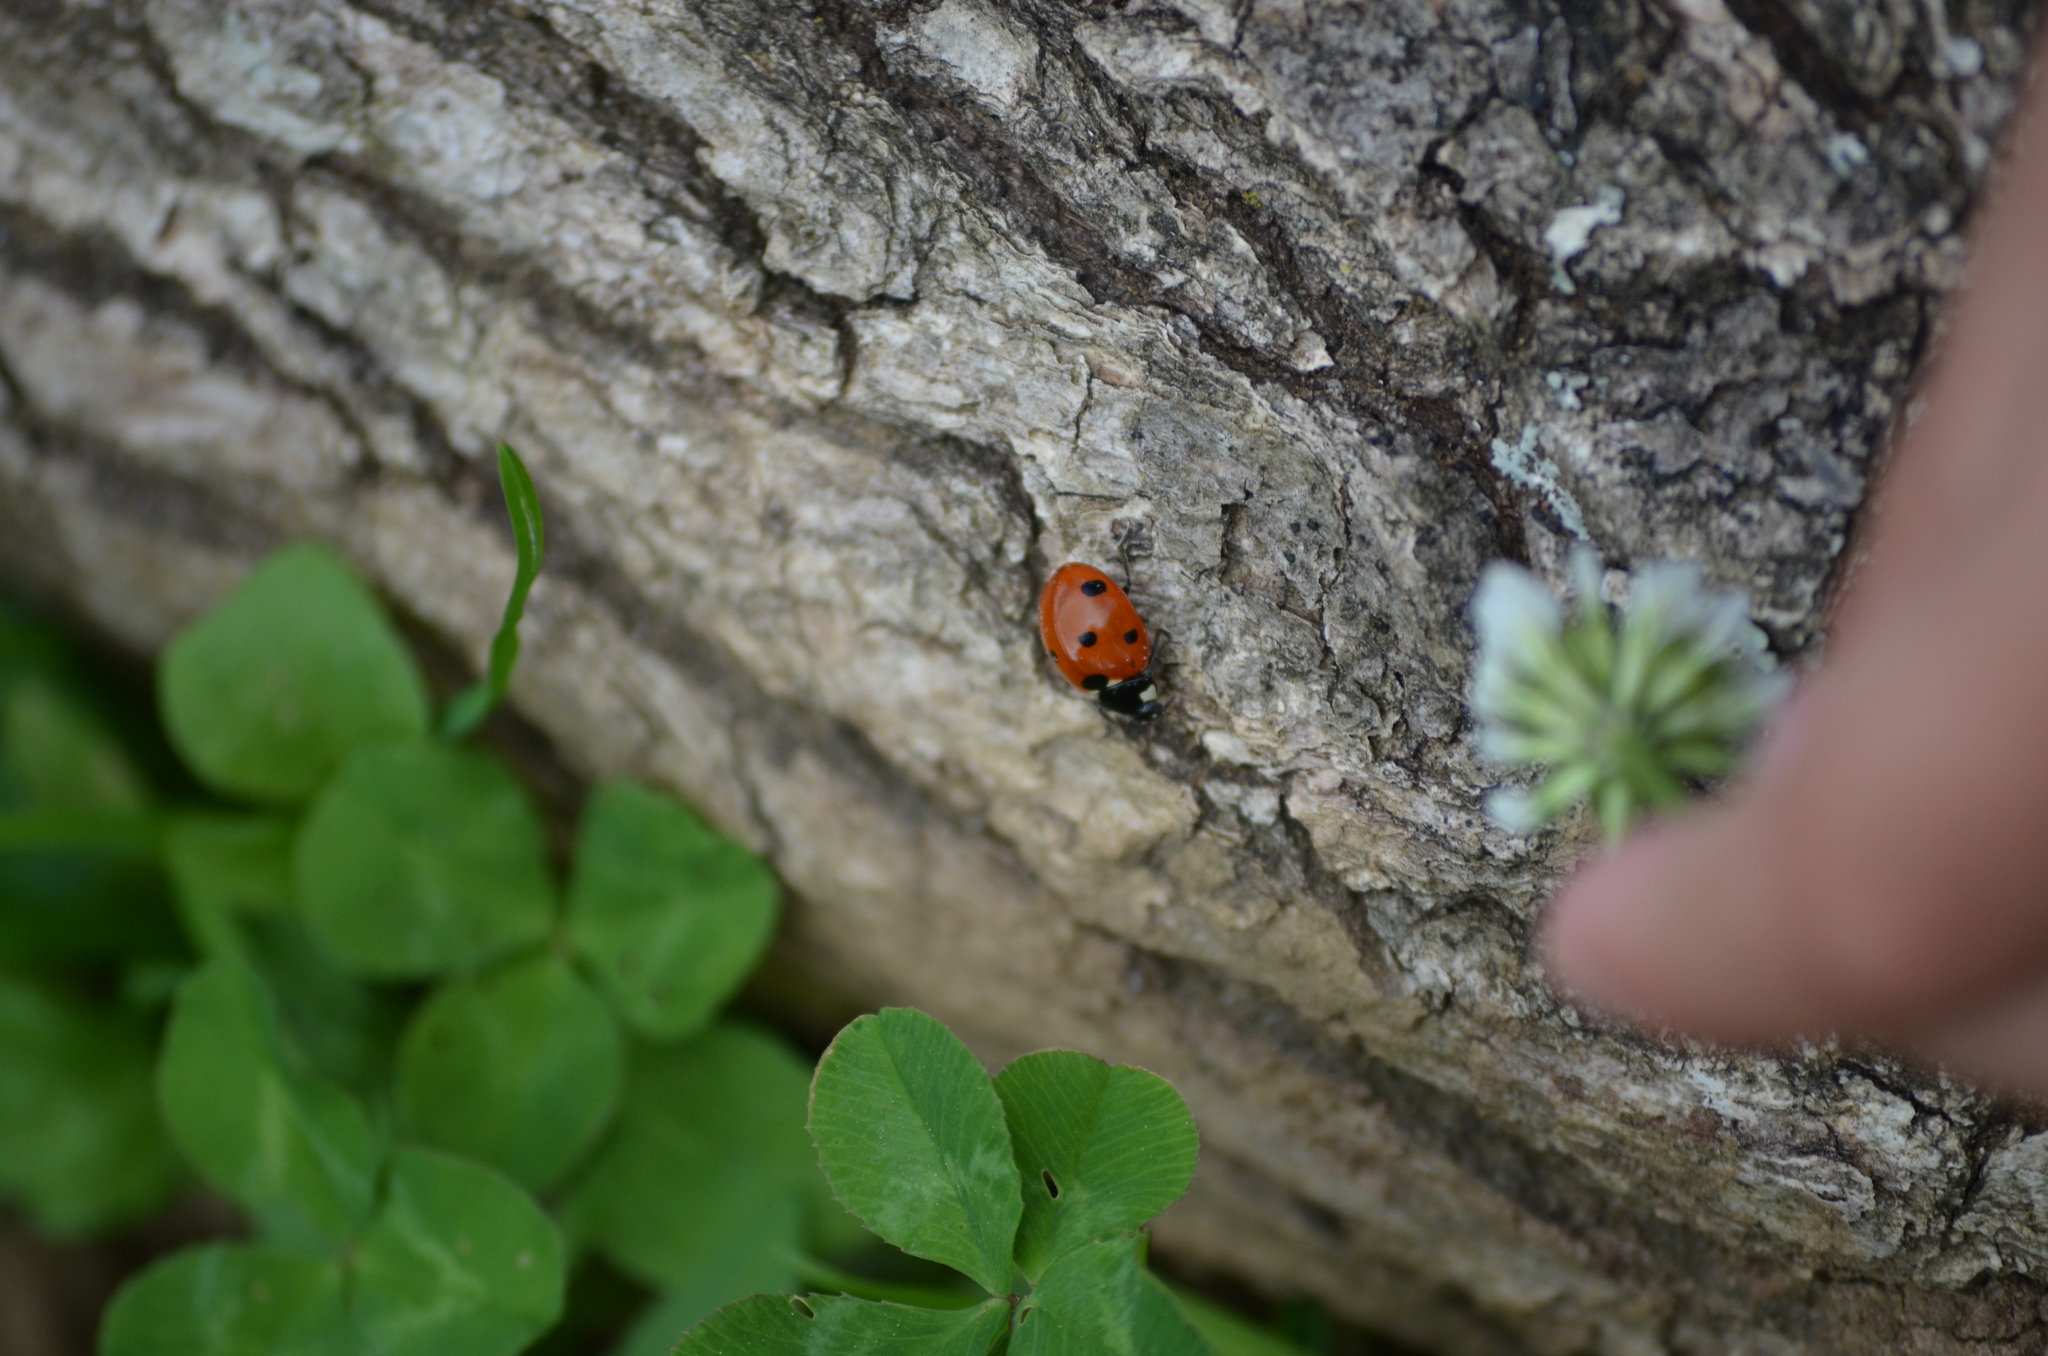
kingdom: Animalia
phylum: Arthropoda
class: Insecta
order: Coleoptera
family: Coccinellidae
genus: Coccinella
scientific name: Coccinella septempunctata
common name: Sevenspotted lady beetle
